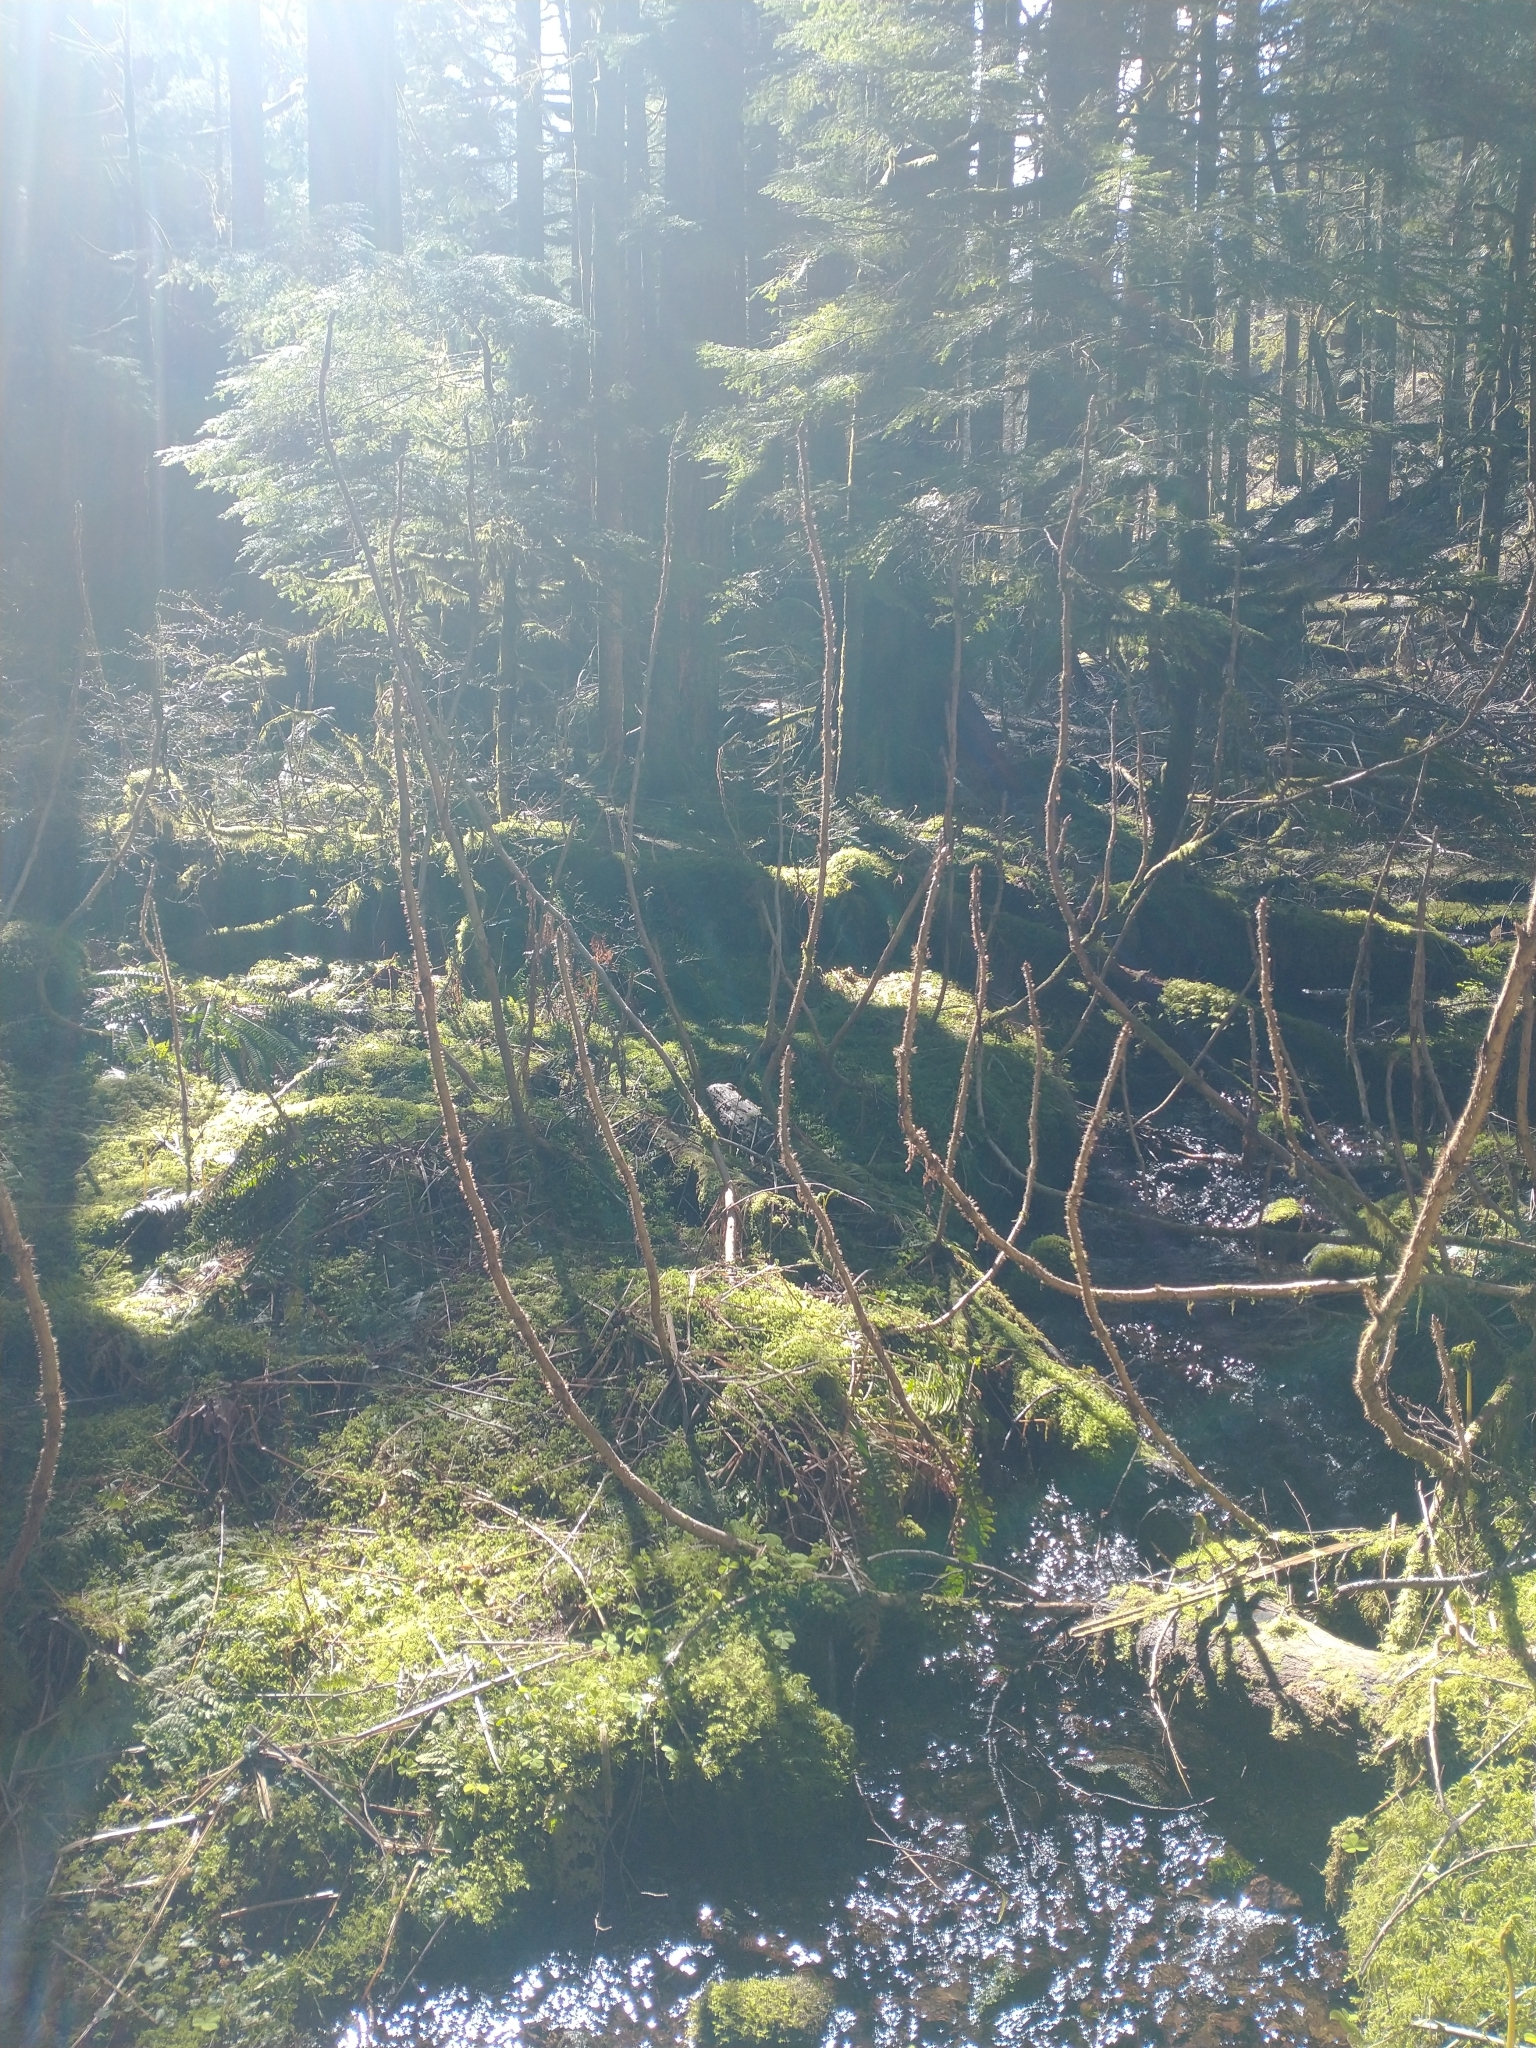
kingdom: Plantae
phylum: Tracheophyta
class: Magnoliopsida
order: Apiales
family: Araliaceae
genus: Oplopanax
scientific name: Oplopanax horridus
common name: Devil's walking-stick
